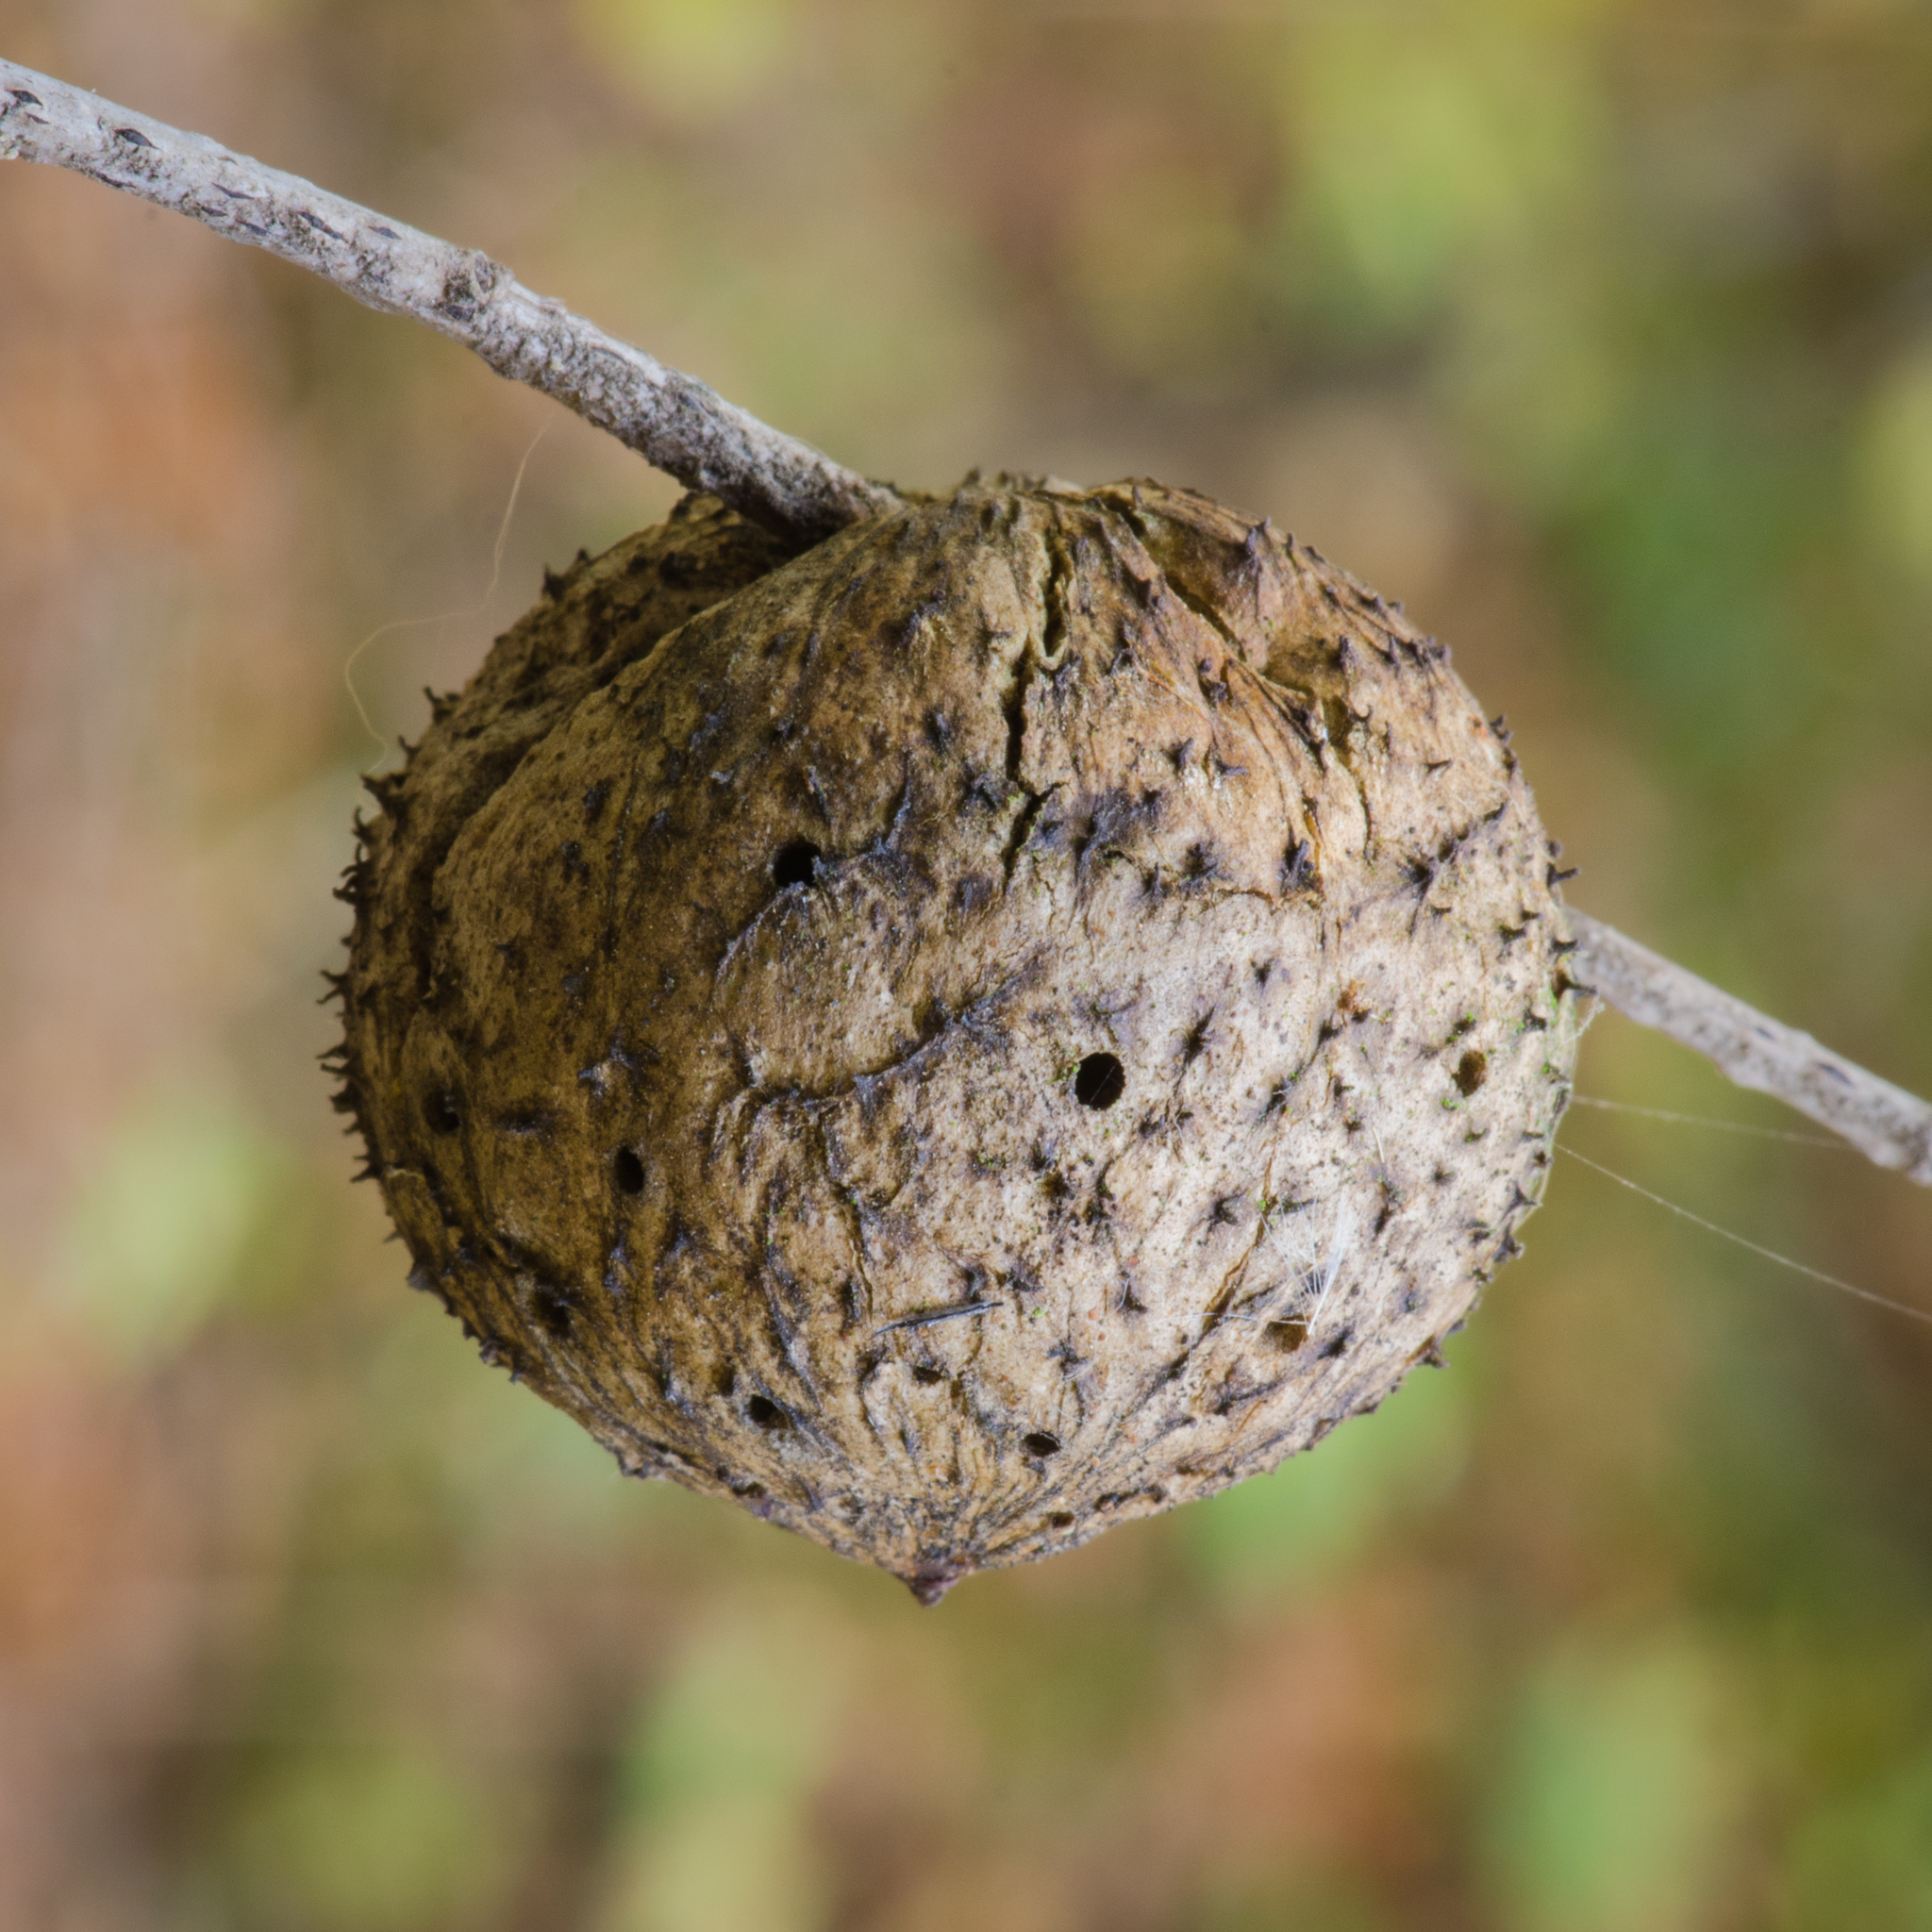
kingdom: Animalia
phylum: Arthropoda
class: Insecta
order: Hymenoptera
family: Cynipidae
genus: Amphibolips
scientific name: Amphibolips quercuspomiformis
